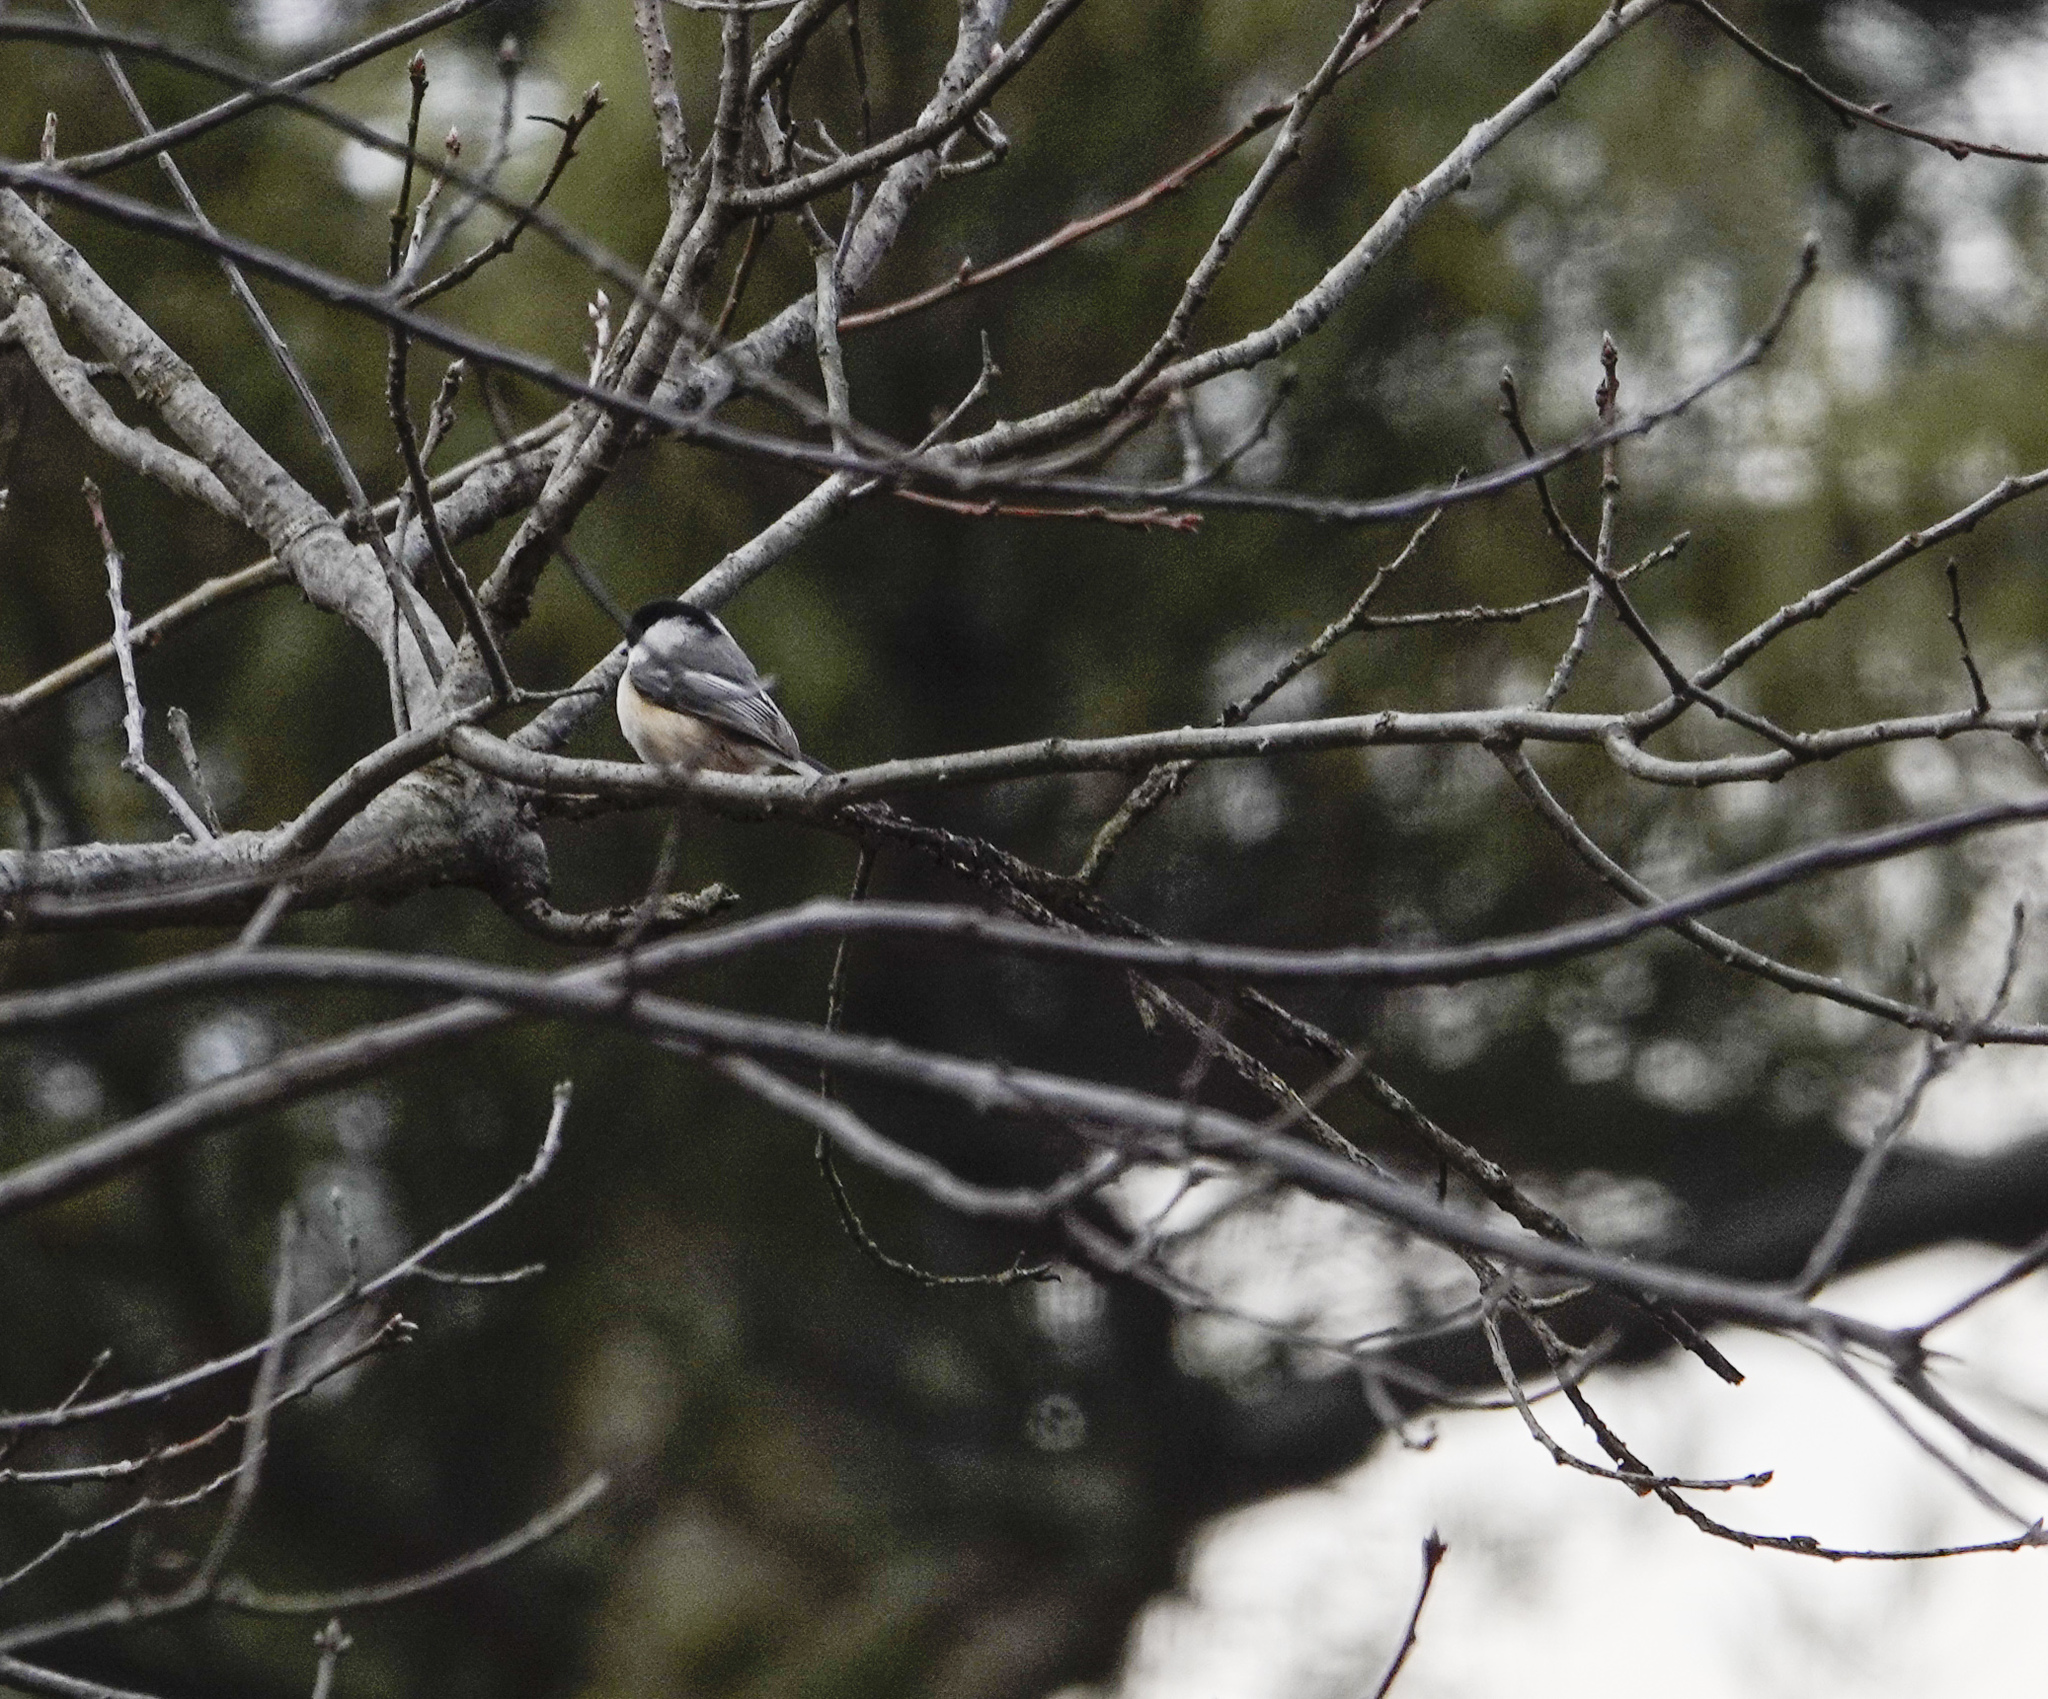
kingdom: Animalia
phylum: Chordata
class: Aves
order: Passeriformes
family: Paridae
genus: Poecile
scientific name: Poecile atricapillus
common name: Black-capped chickadee
